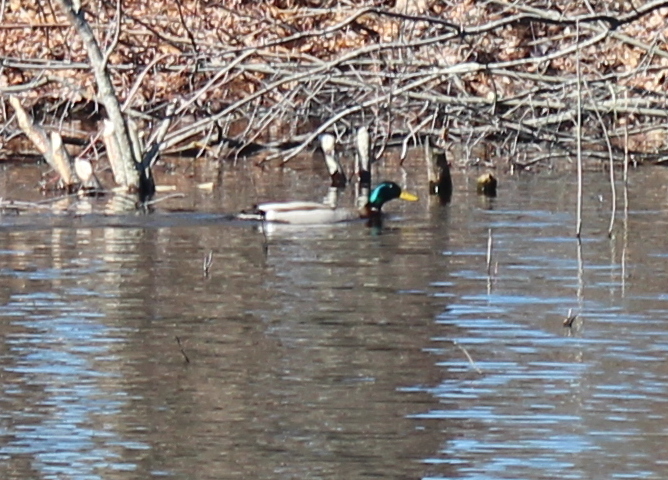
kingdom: Animalia
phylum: Chordata
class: Aves
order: Anseriformes
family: Anatidae
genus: Anas
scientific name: Anas platyrhynchos
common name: Mallard
